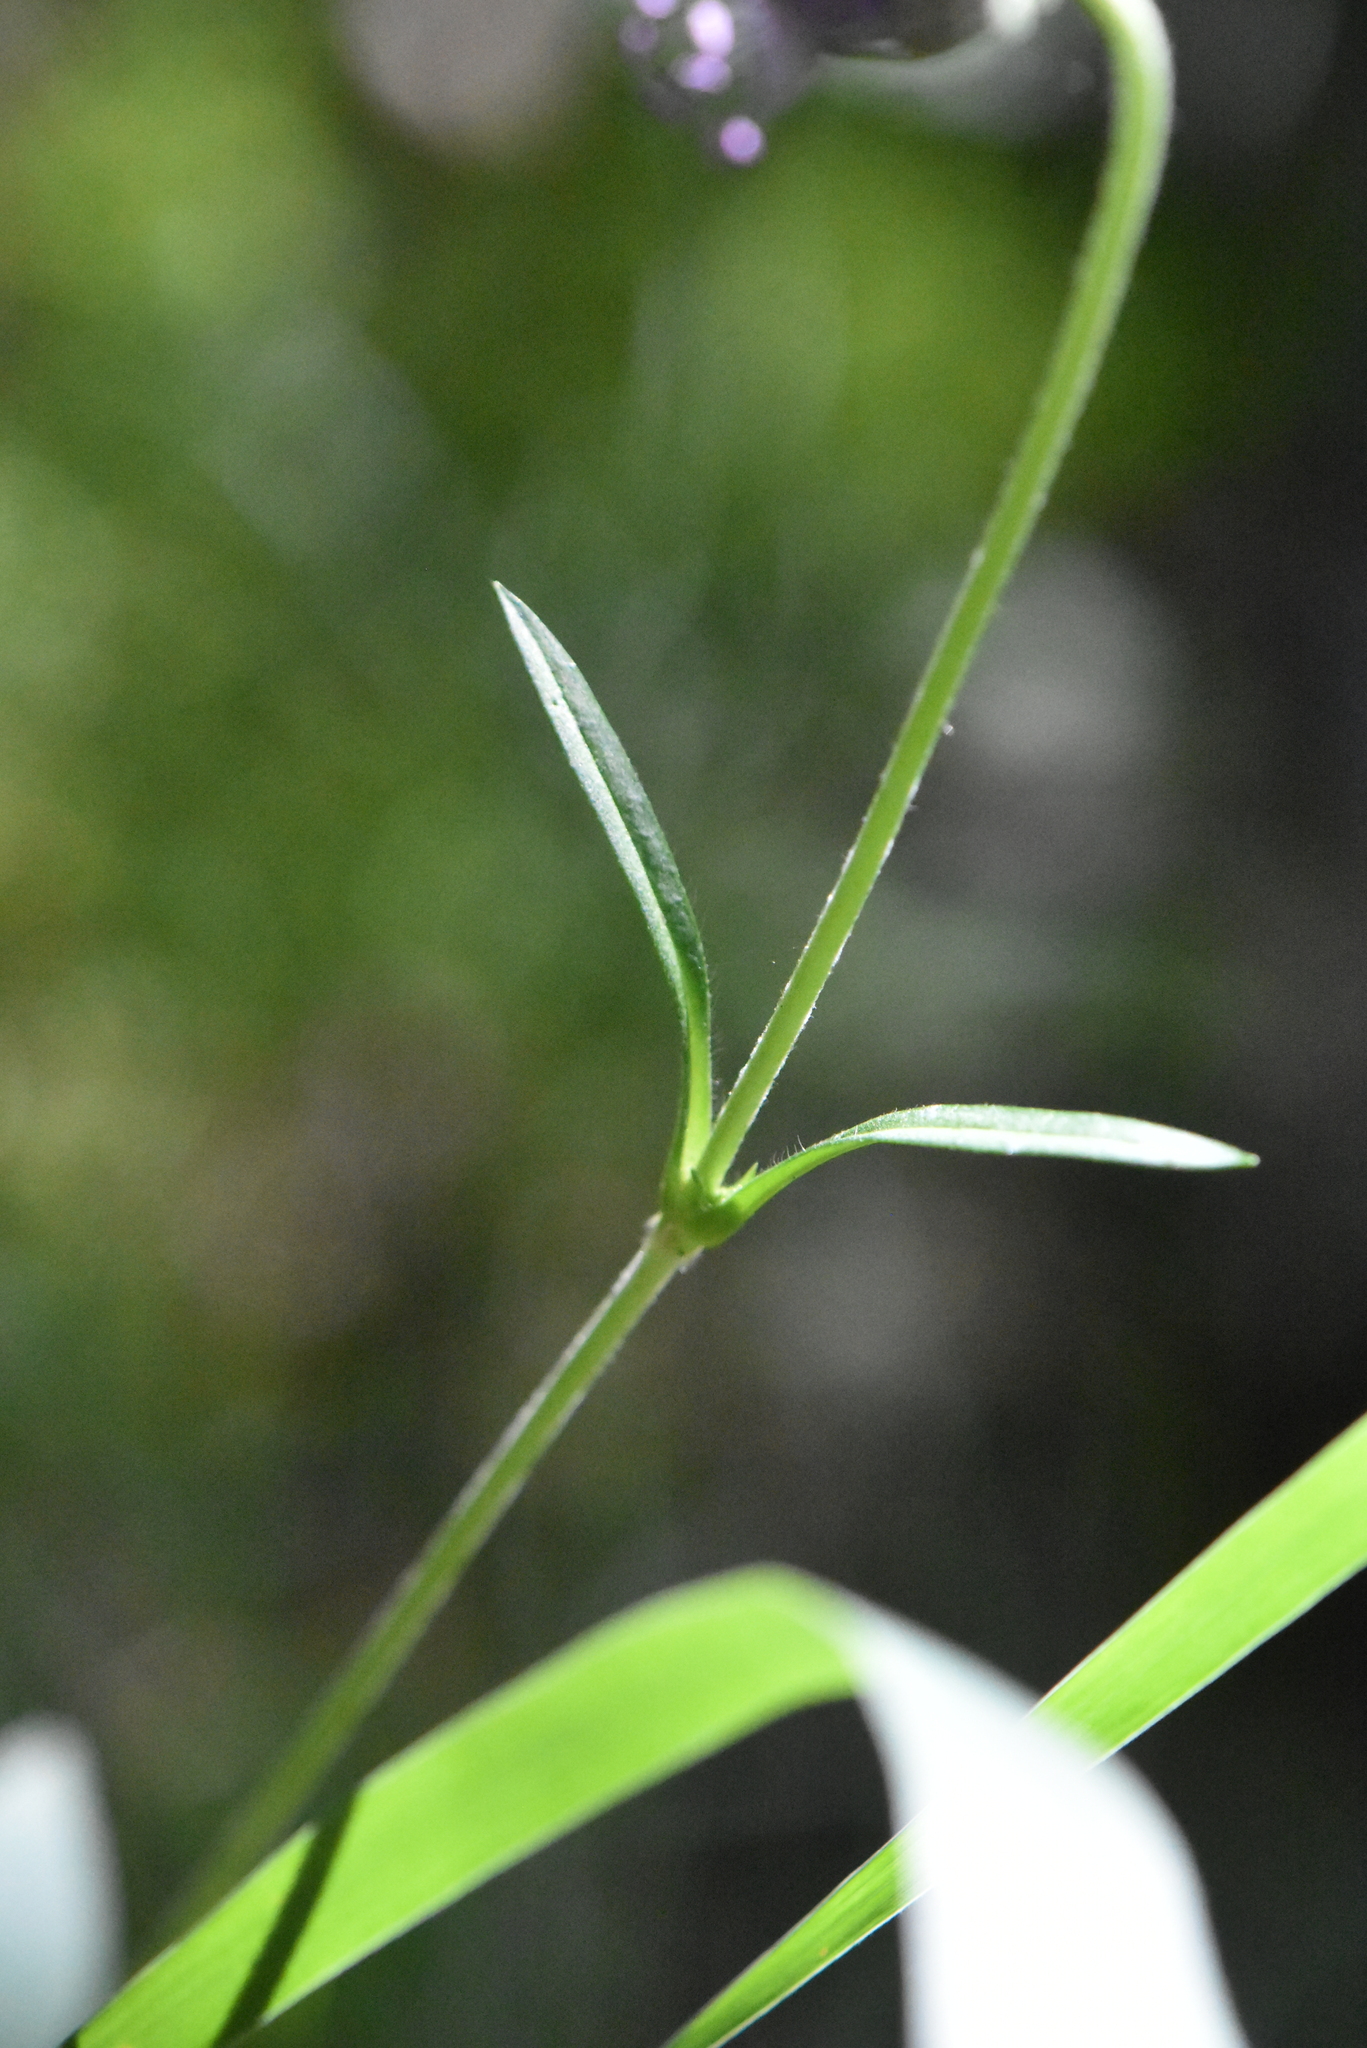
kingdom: Plantae
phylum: Tracheophyta
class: Magnoliopsida
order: Dipsacales
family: Caprifoliaceae
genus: Succisa
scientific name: Succisa pratensis
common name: Devil's-bit
